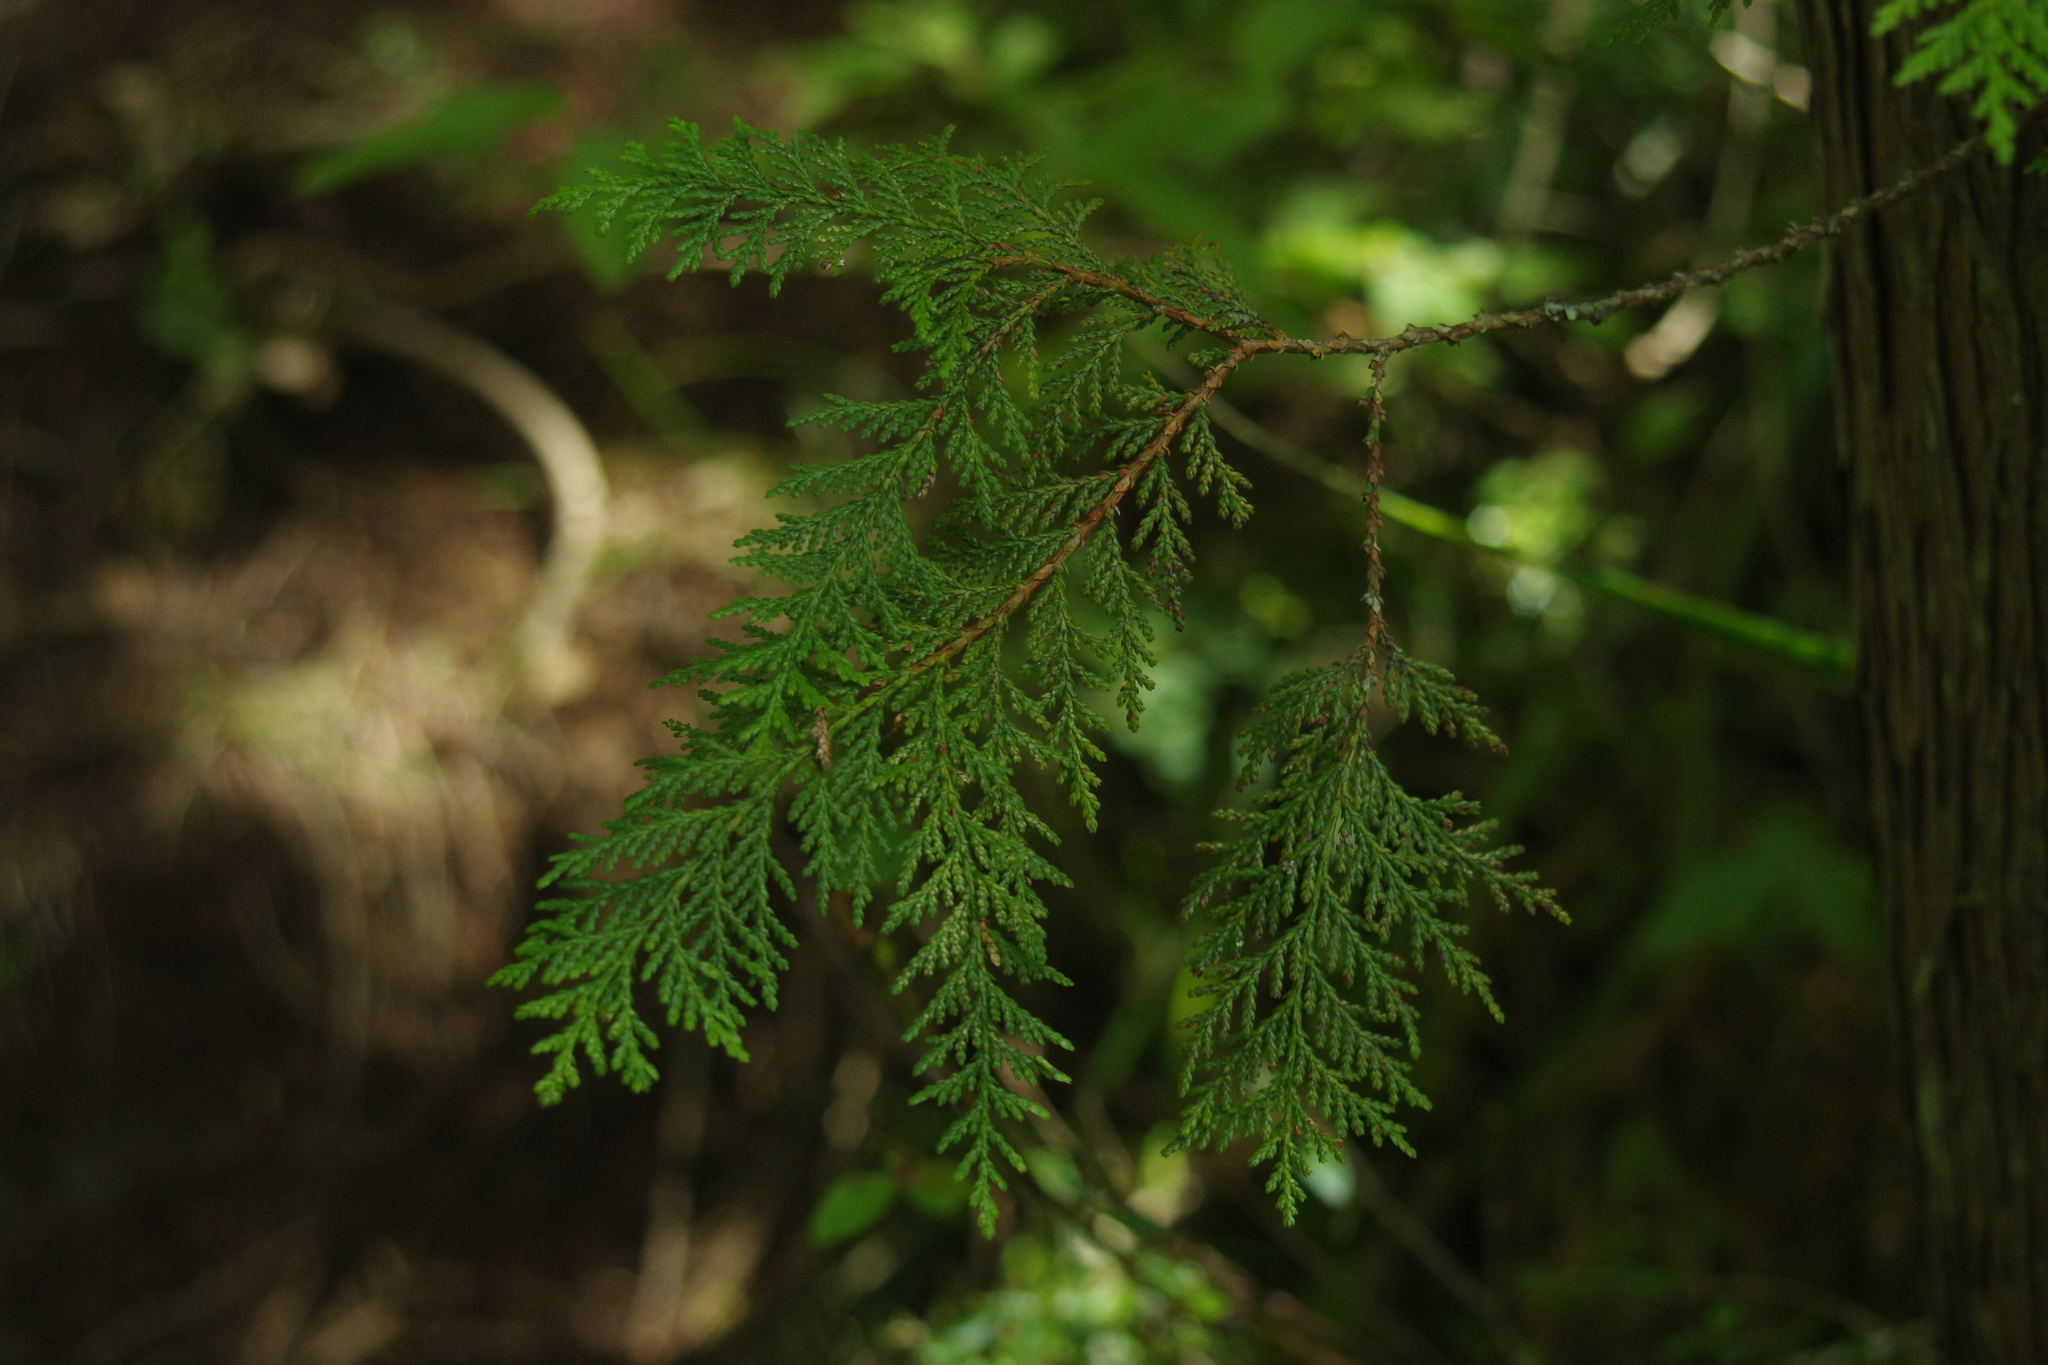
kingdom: Plantae
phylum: Tracheophyta
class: Pinopsida
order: Pinales
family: Cupressaceae
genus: Chamaecyparis
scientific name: Chamaecyparis formosensis
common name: Formosan cypress
